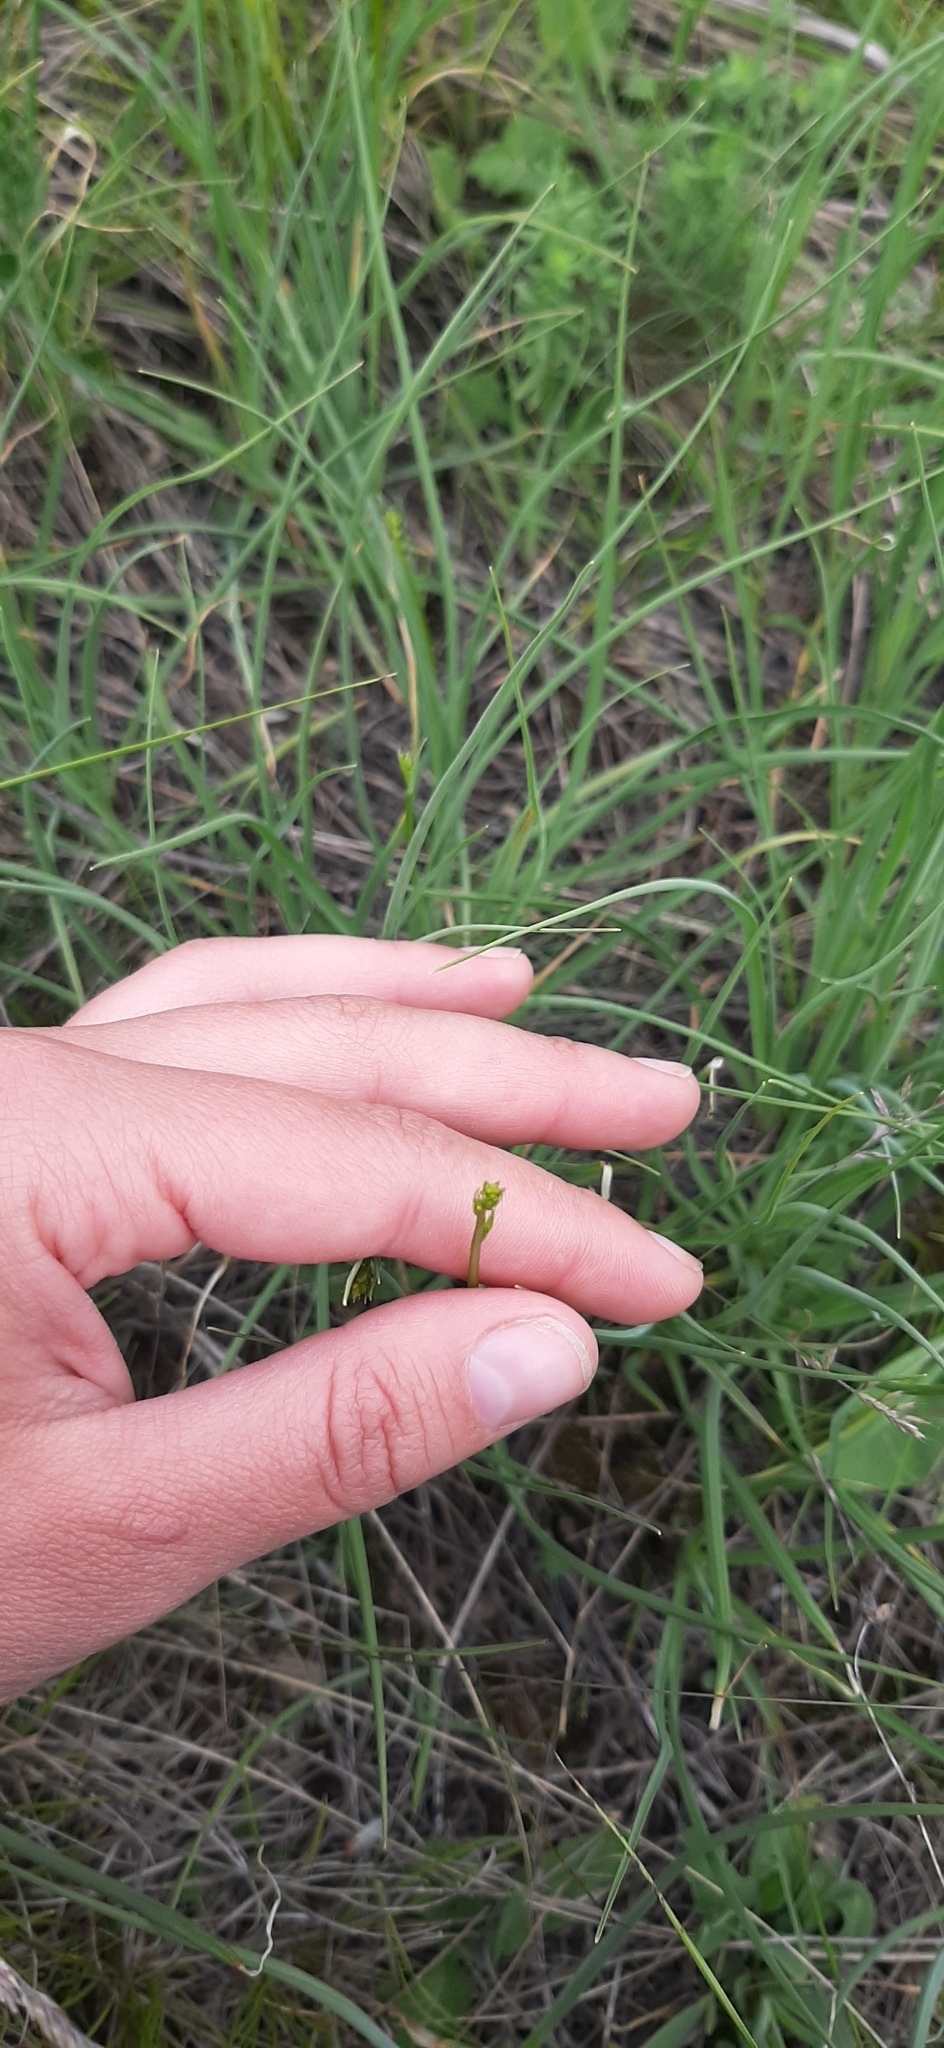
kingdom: Plantae
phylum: Tracheophyta
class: Liliopsida
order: Asparagales
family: Asparagaceae
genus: Anthericum
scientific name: Anthericum ramosum
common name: Branched st. bernard's-lily
